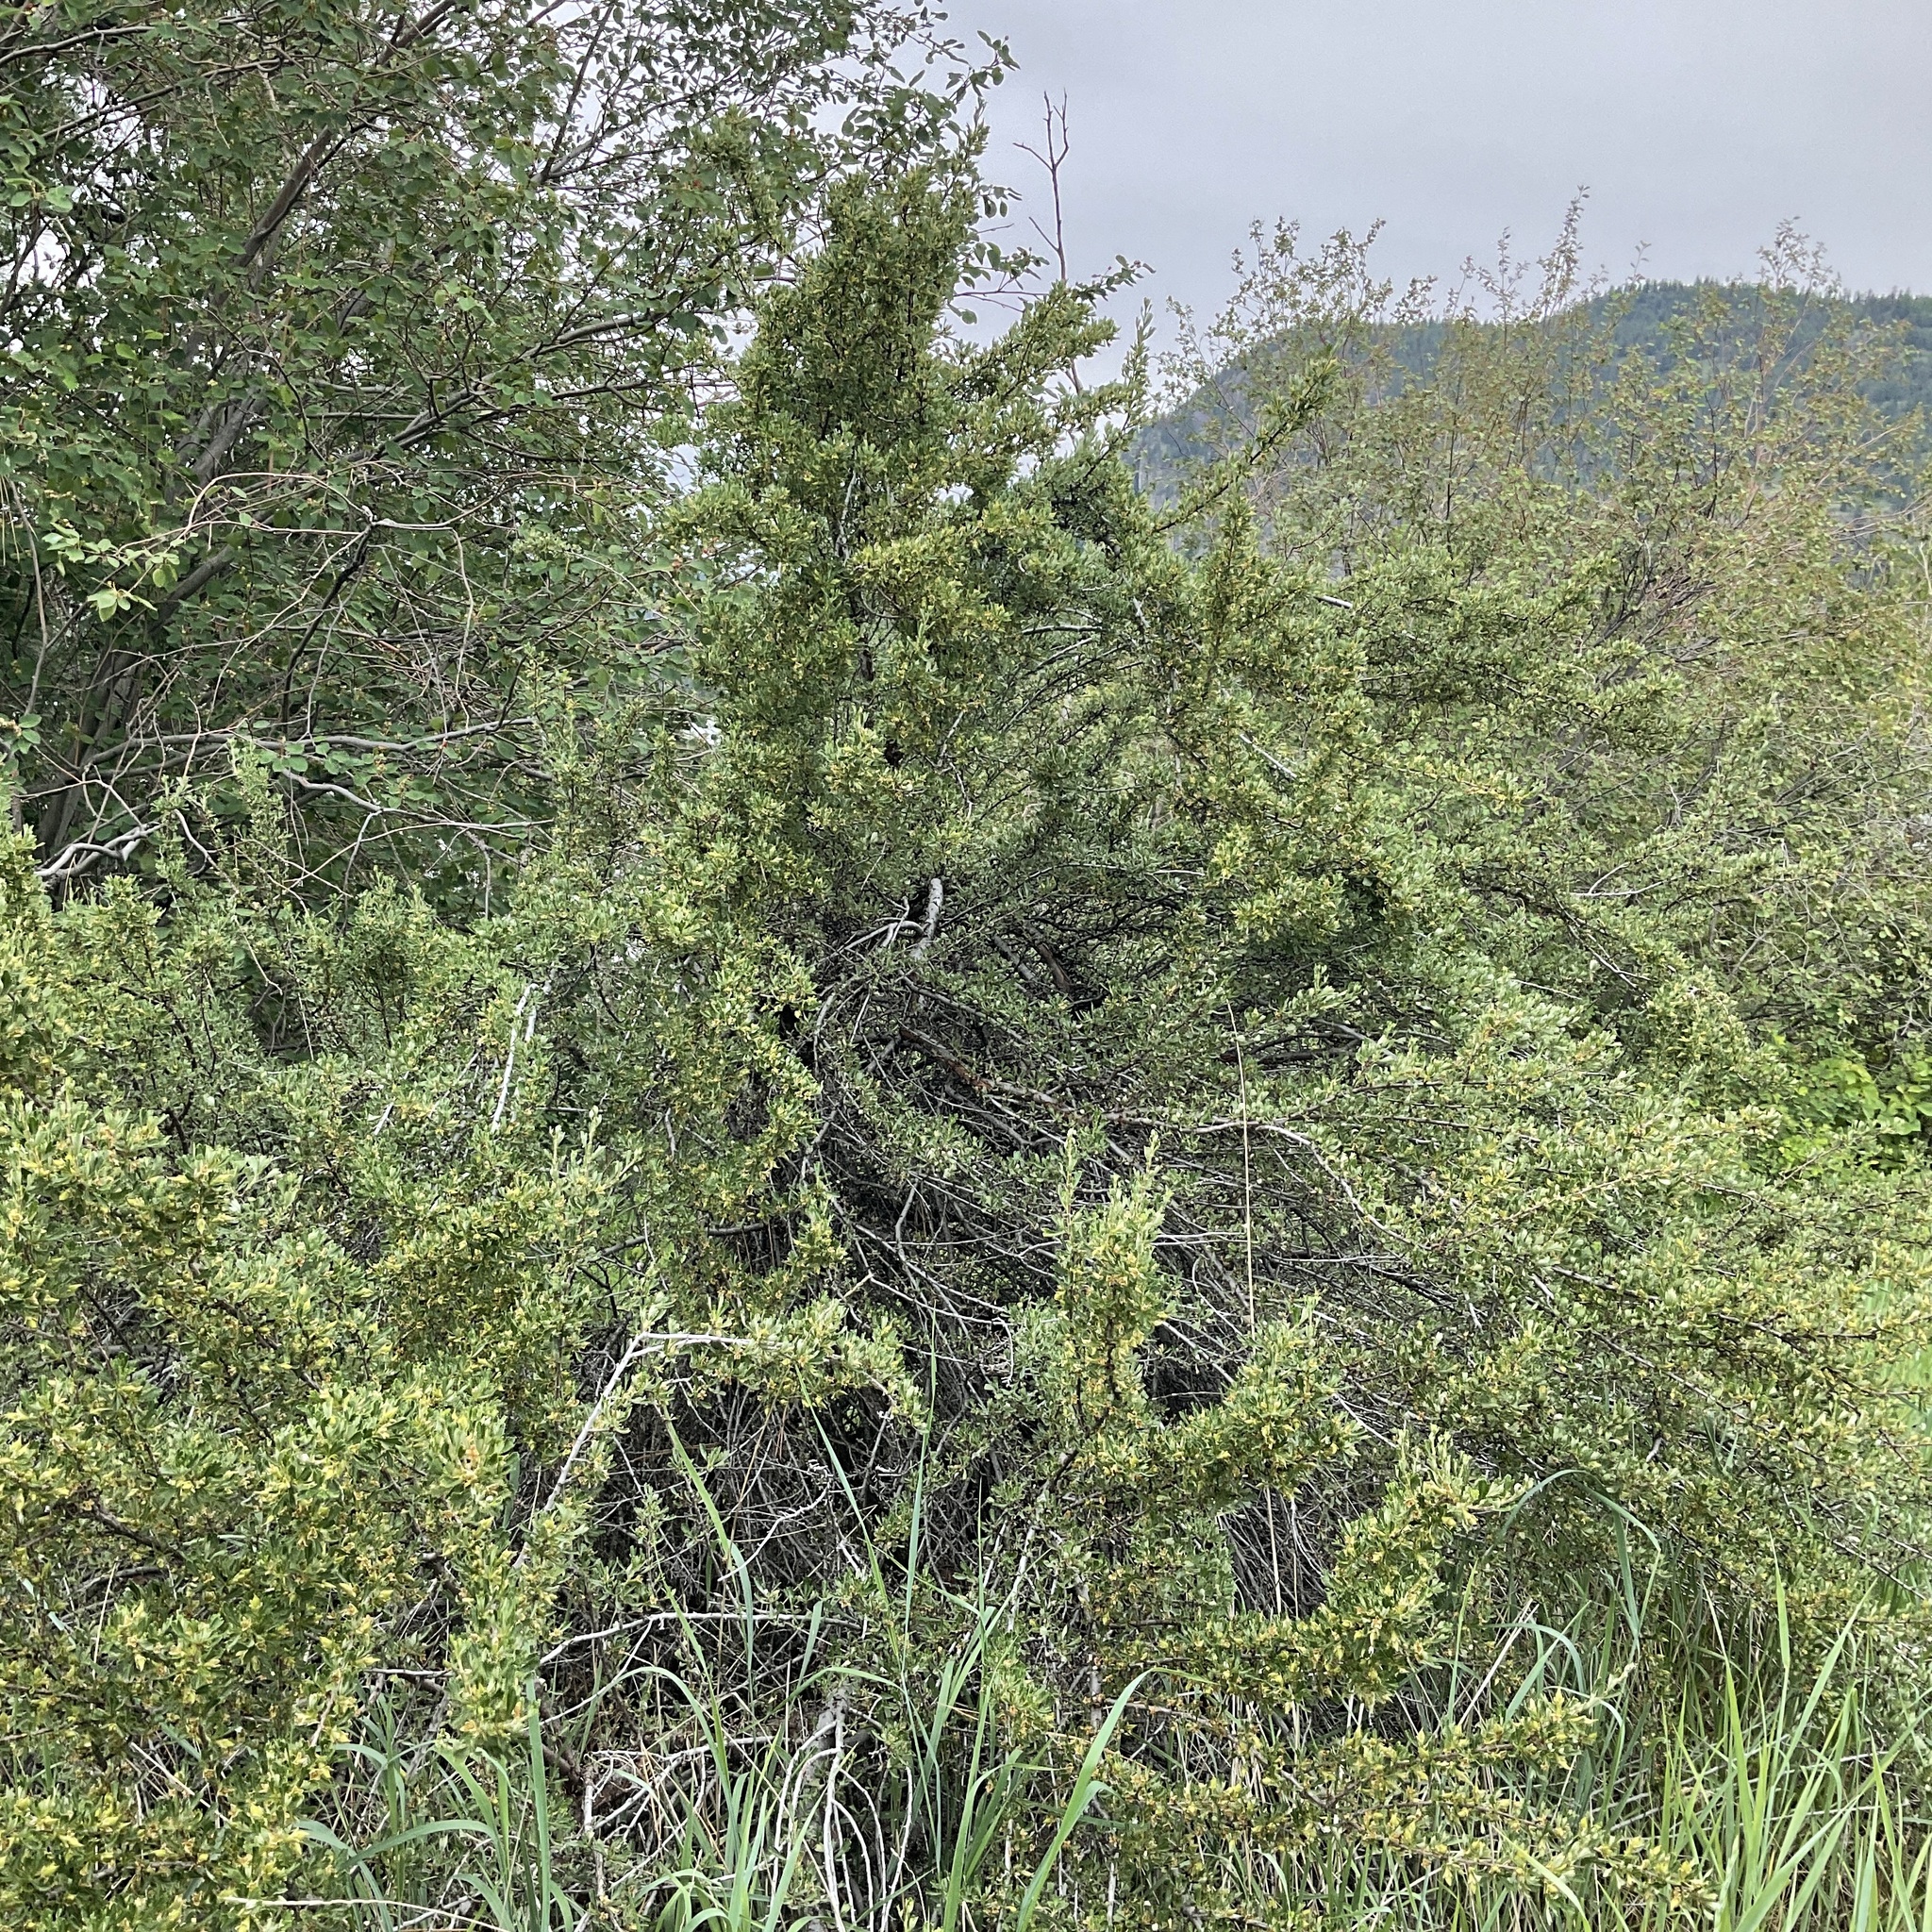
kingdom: Plantae
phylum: Tracheophyta
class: Magnoliopsida
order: Rosales
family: Rosaceae
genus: Purshia
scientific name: Purshia tridentata
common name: Antelope bitterbrush
